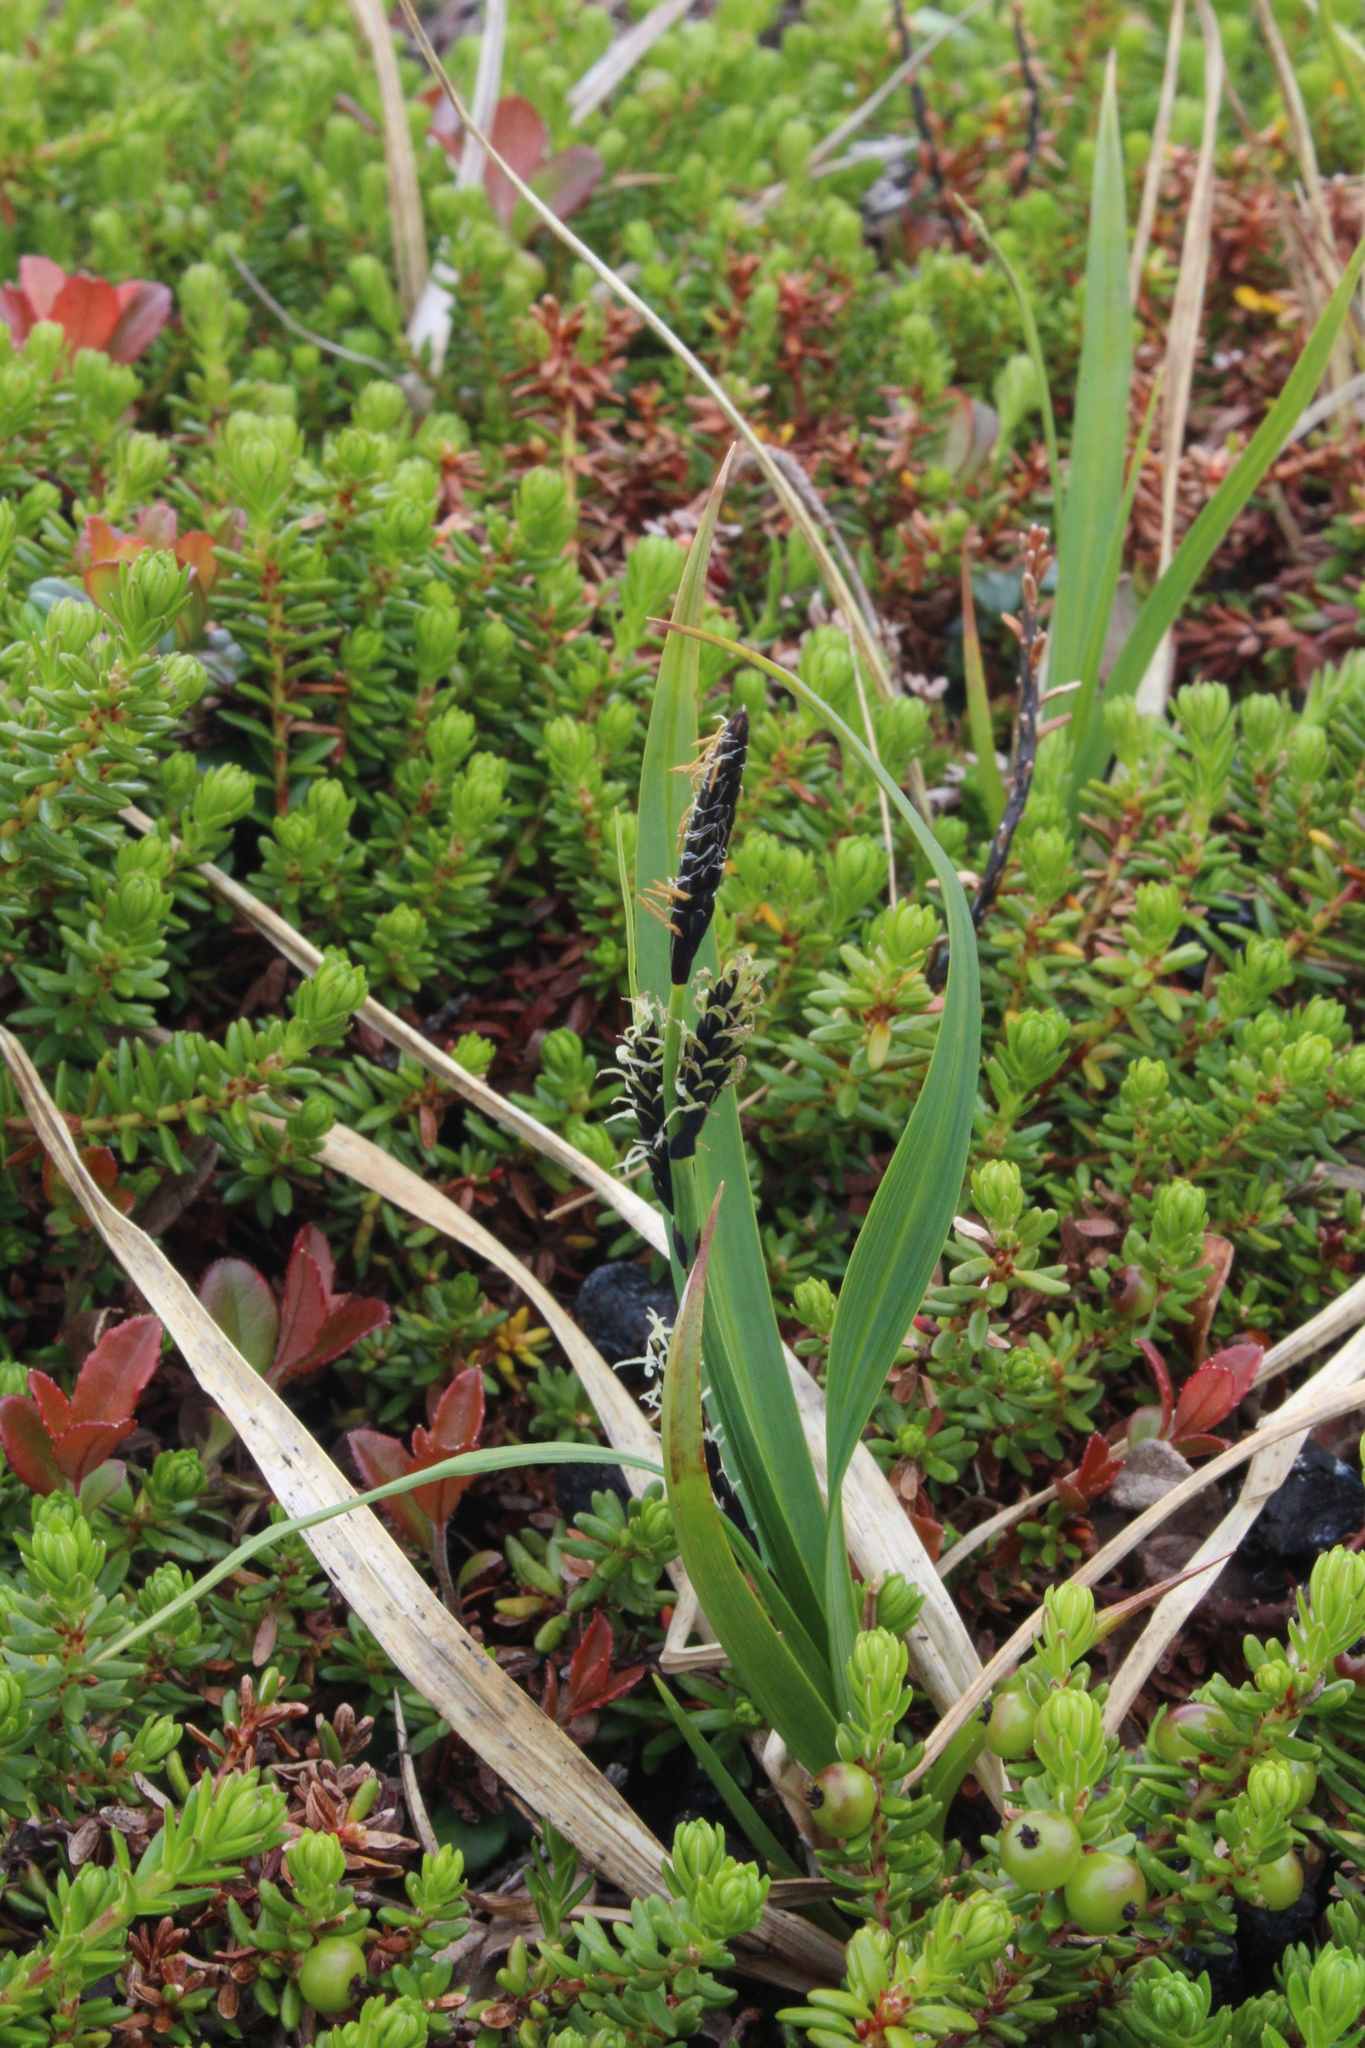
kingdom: Plantae
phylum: Tracheophyta
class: Liliopsida
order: Poales
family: Cyperaceae
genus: Carex
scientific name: Carex bigelowii
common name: Stiff sedge
